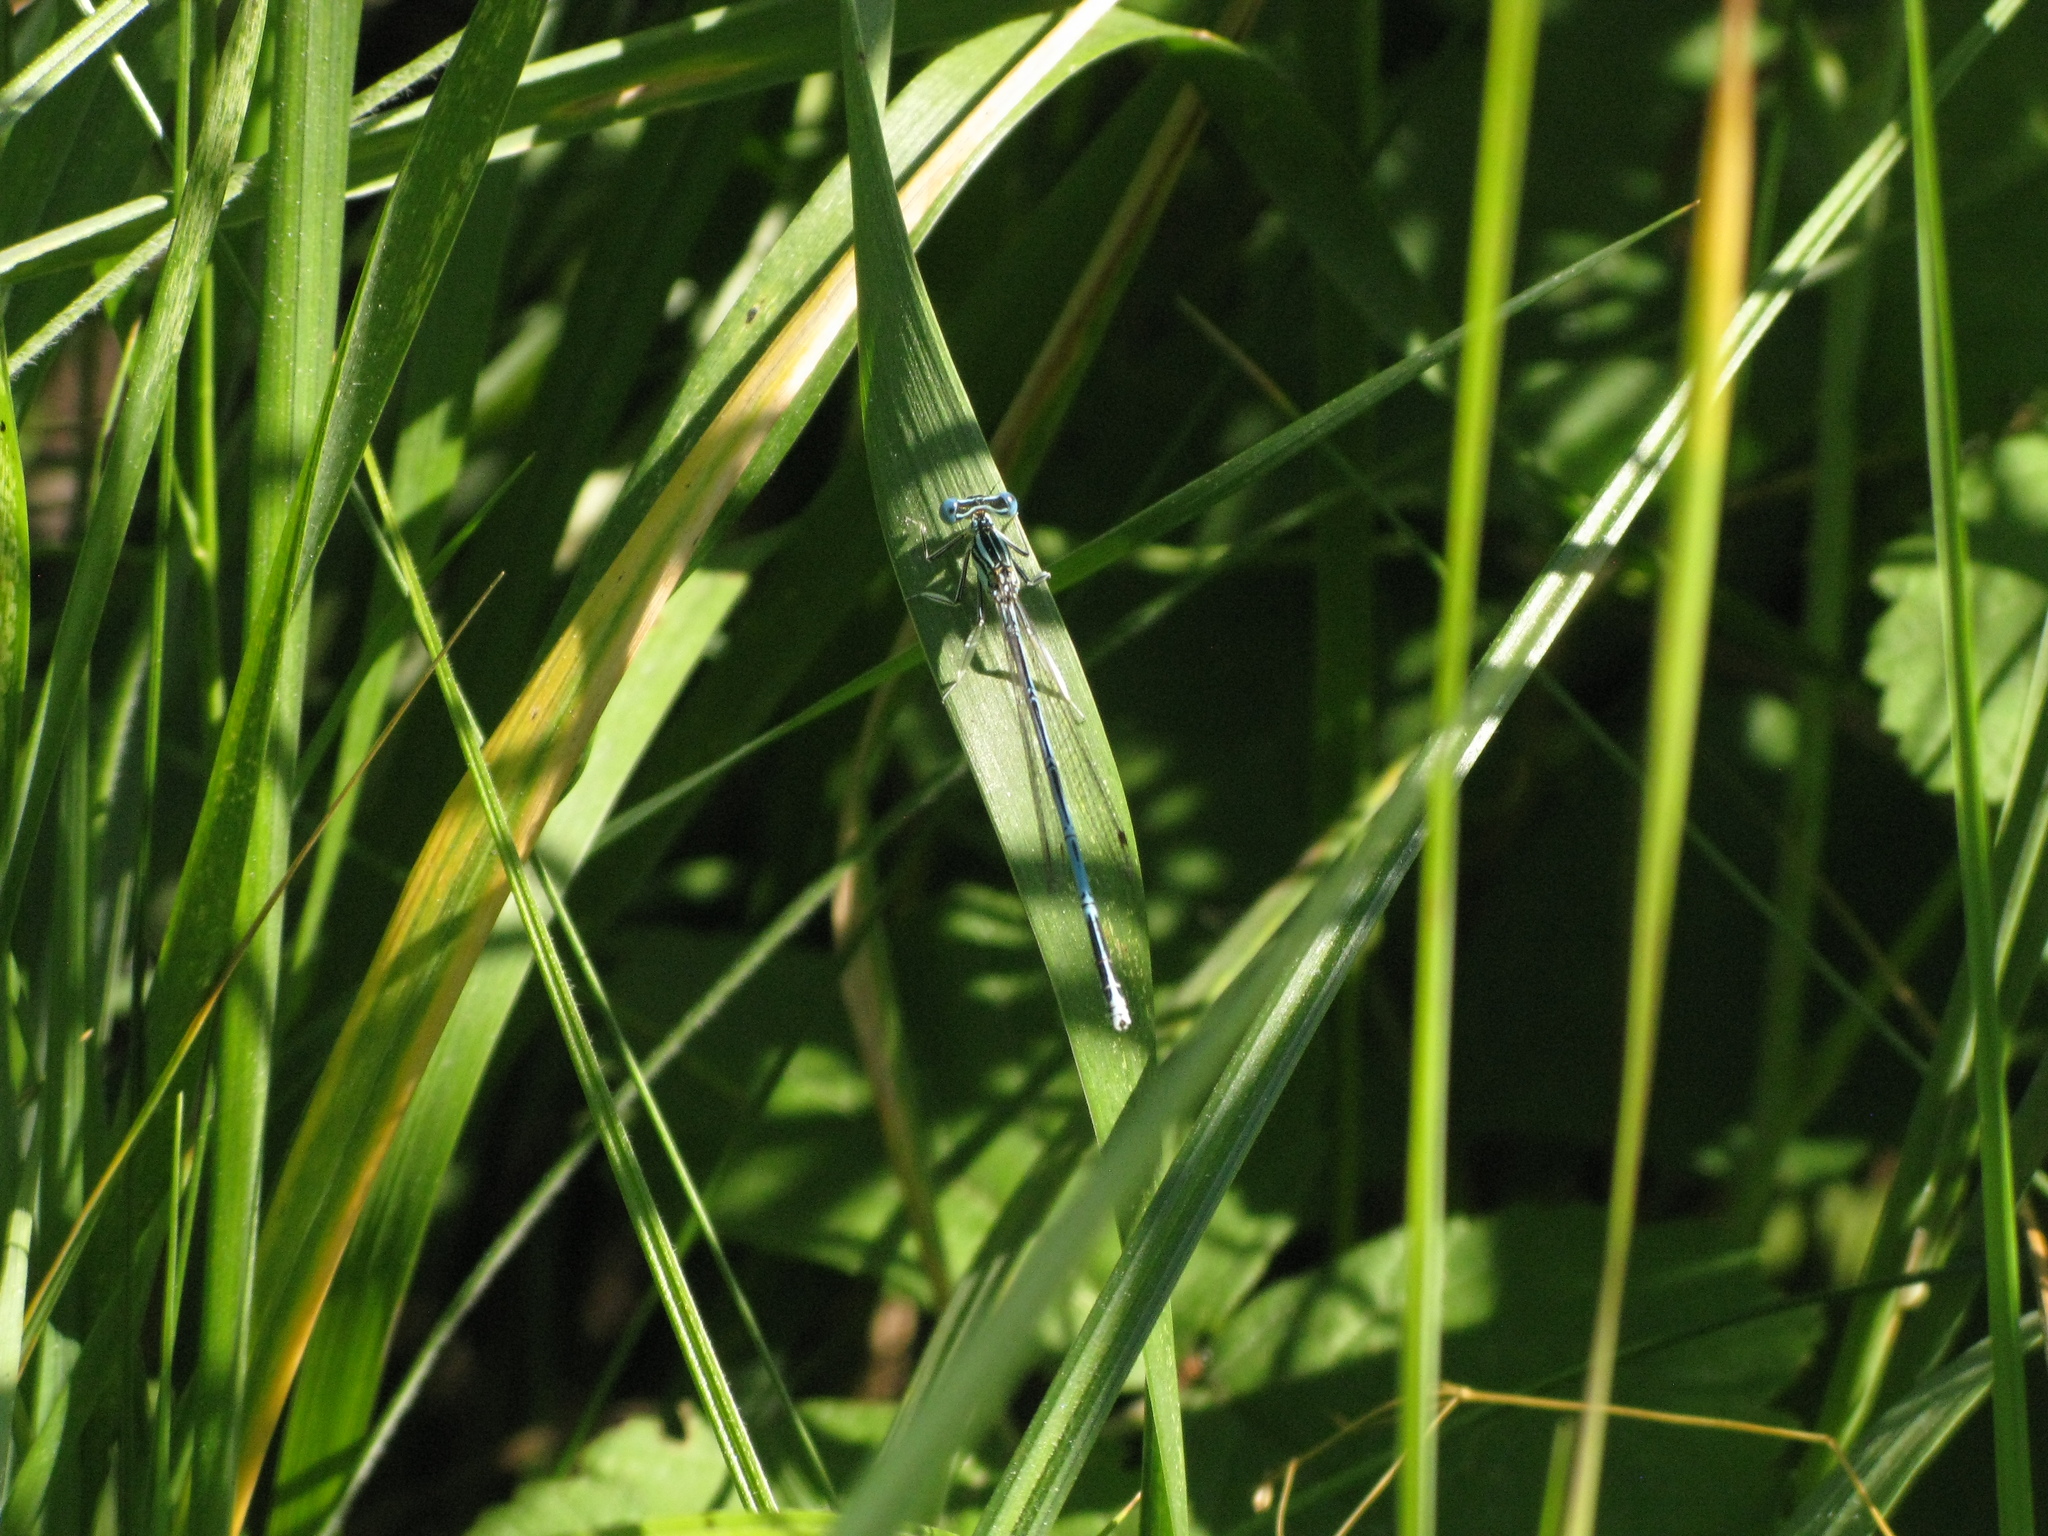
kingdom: Animalia
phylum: Arthropoda
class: Insecta
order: Odonata
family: Platycnemididae
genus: Platycnemis
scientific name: Platycnemis pennipes
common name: White-legged damselfly
